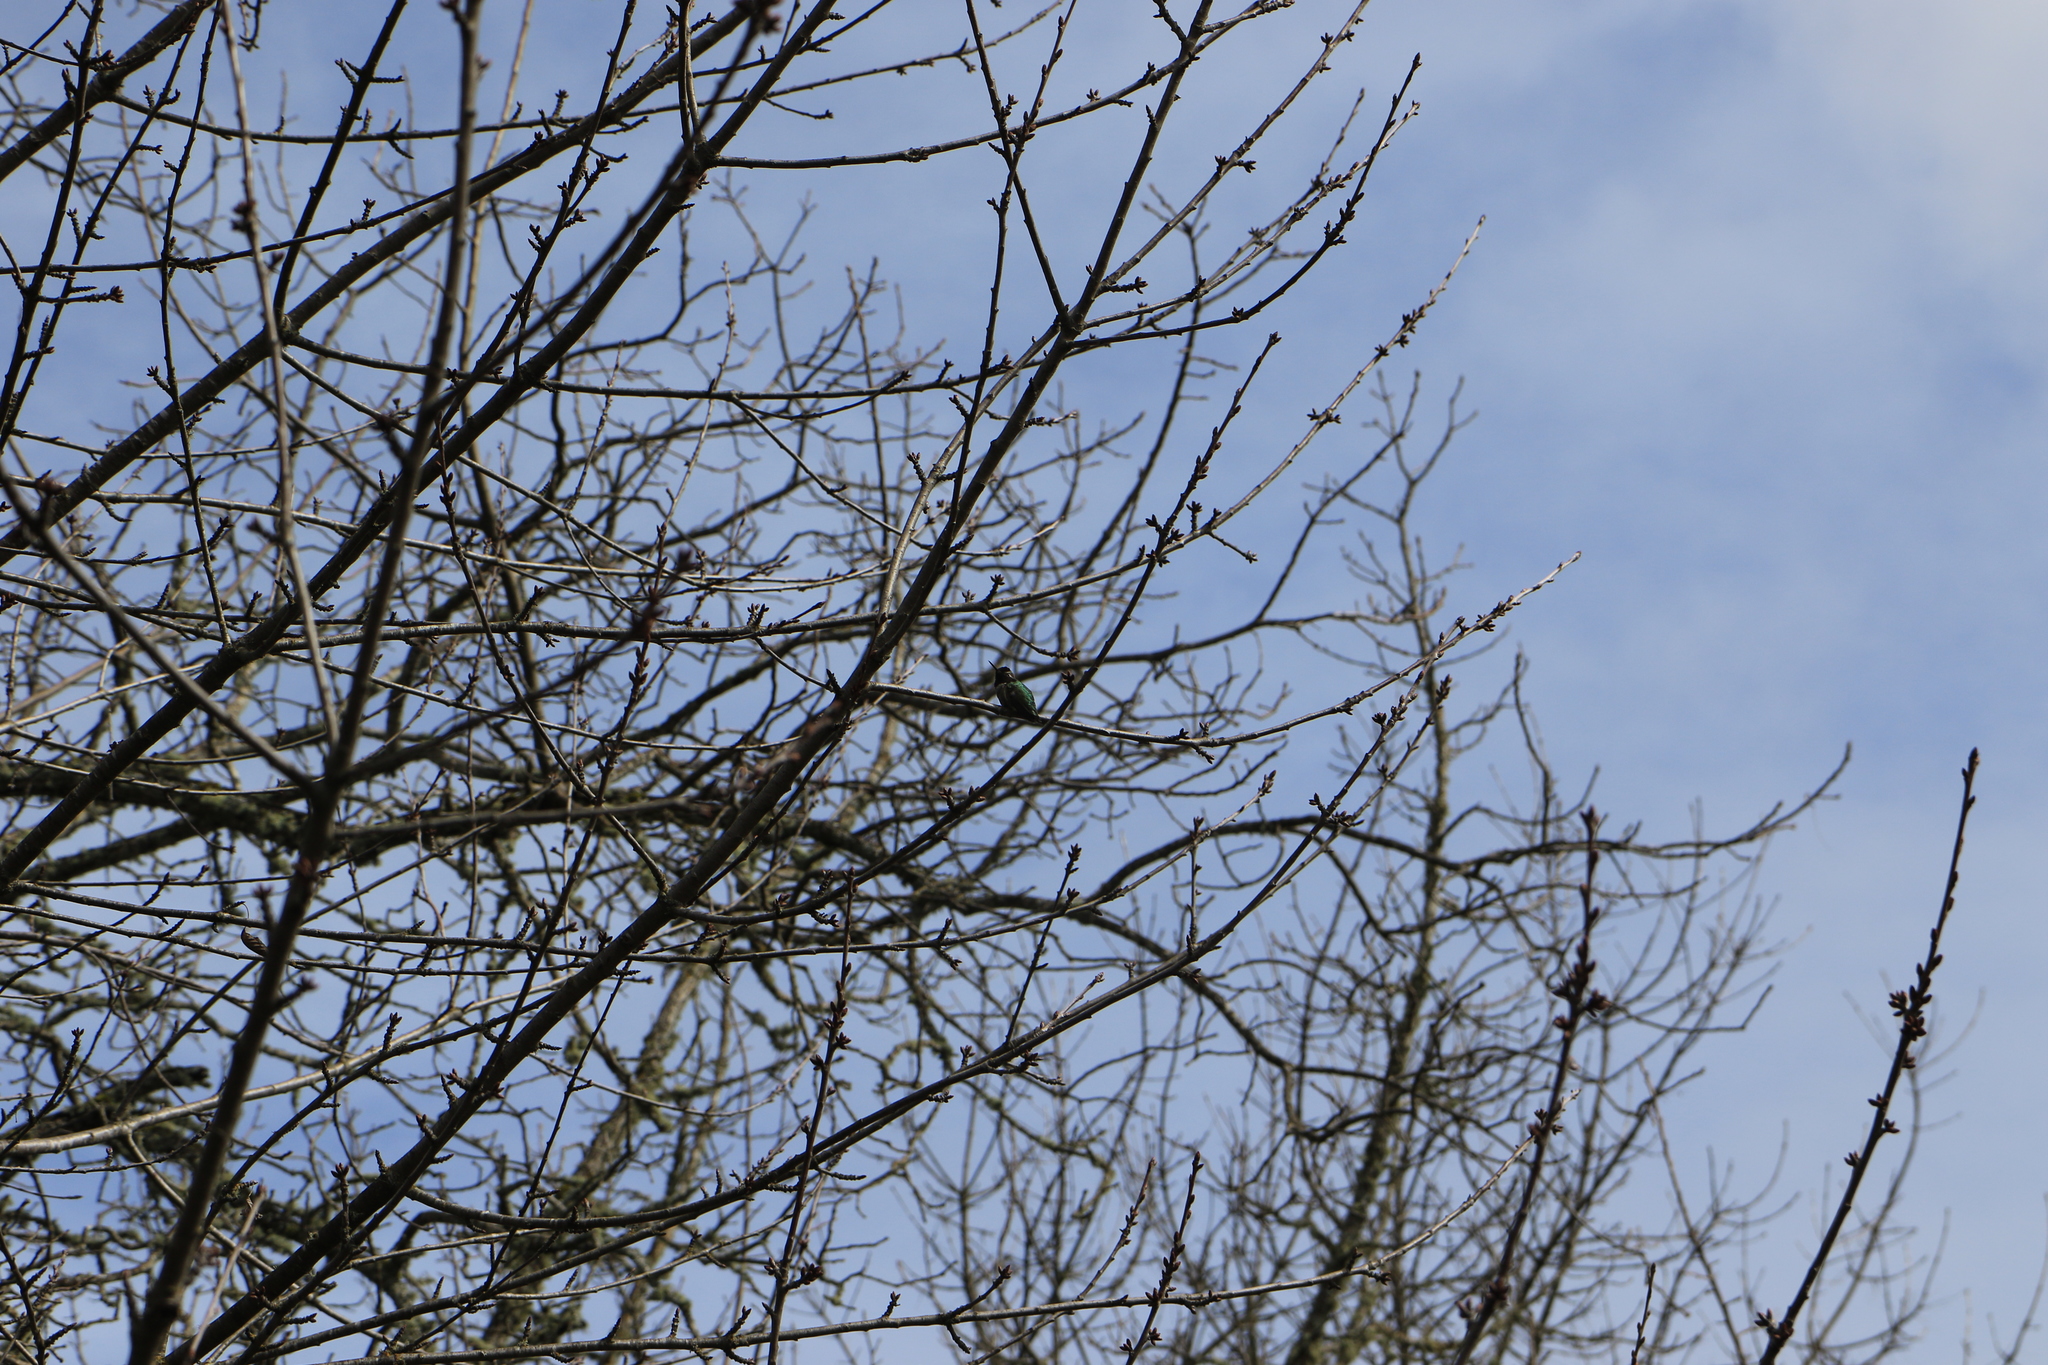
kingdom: Animalia
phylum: Chordata
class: Aves
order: Apodiformes
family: Trochilidae
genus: Calypte
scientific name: Calypte anna
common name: Anna's hummingbird
